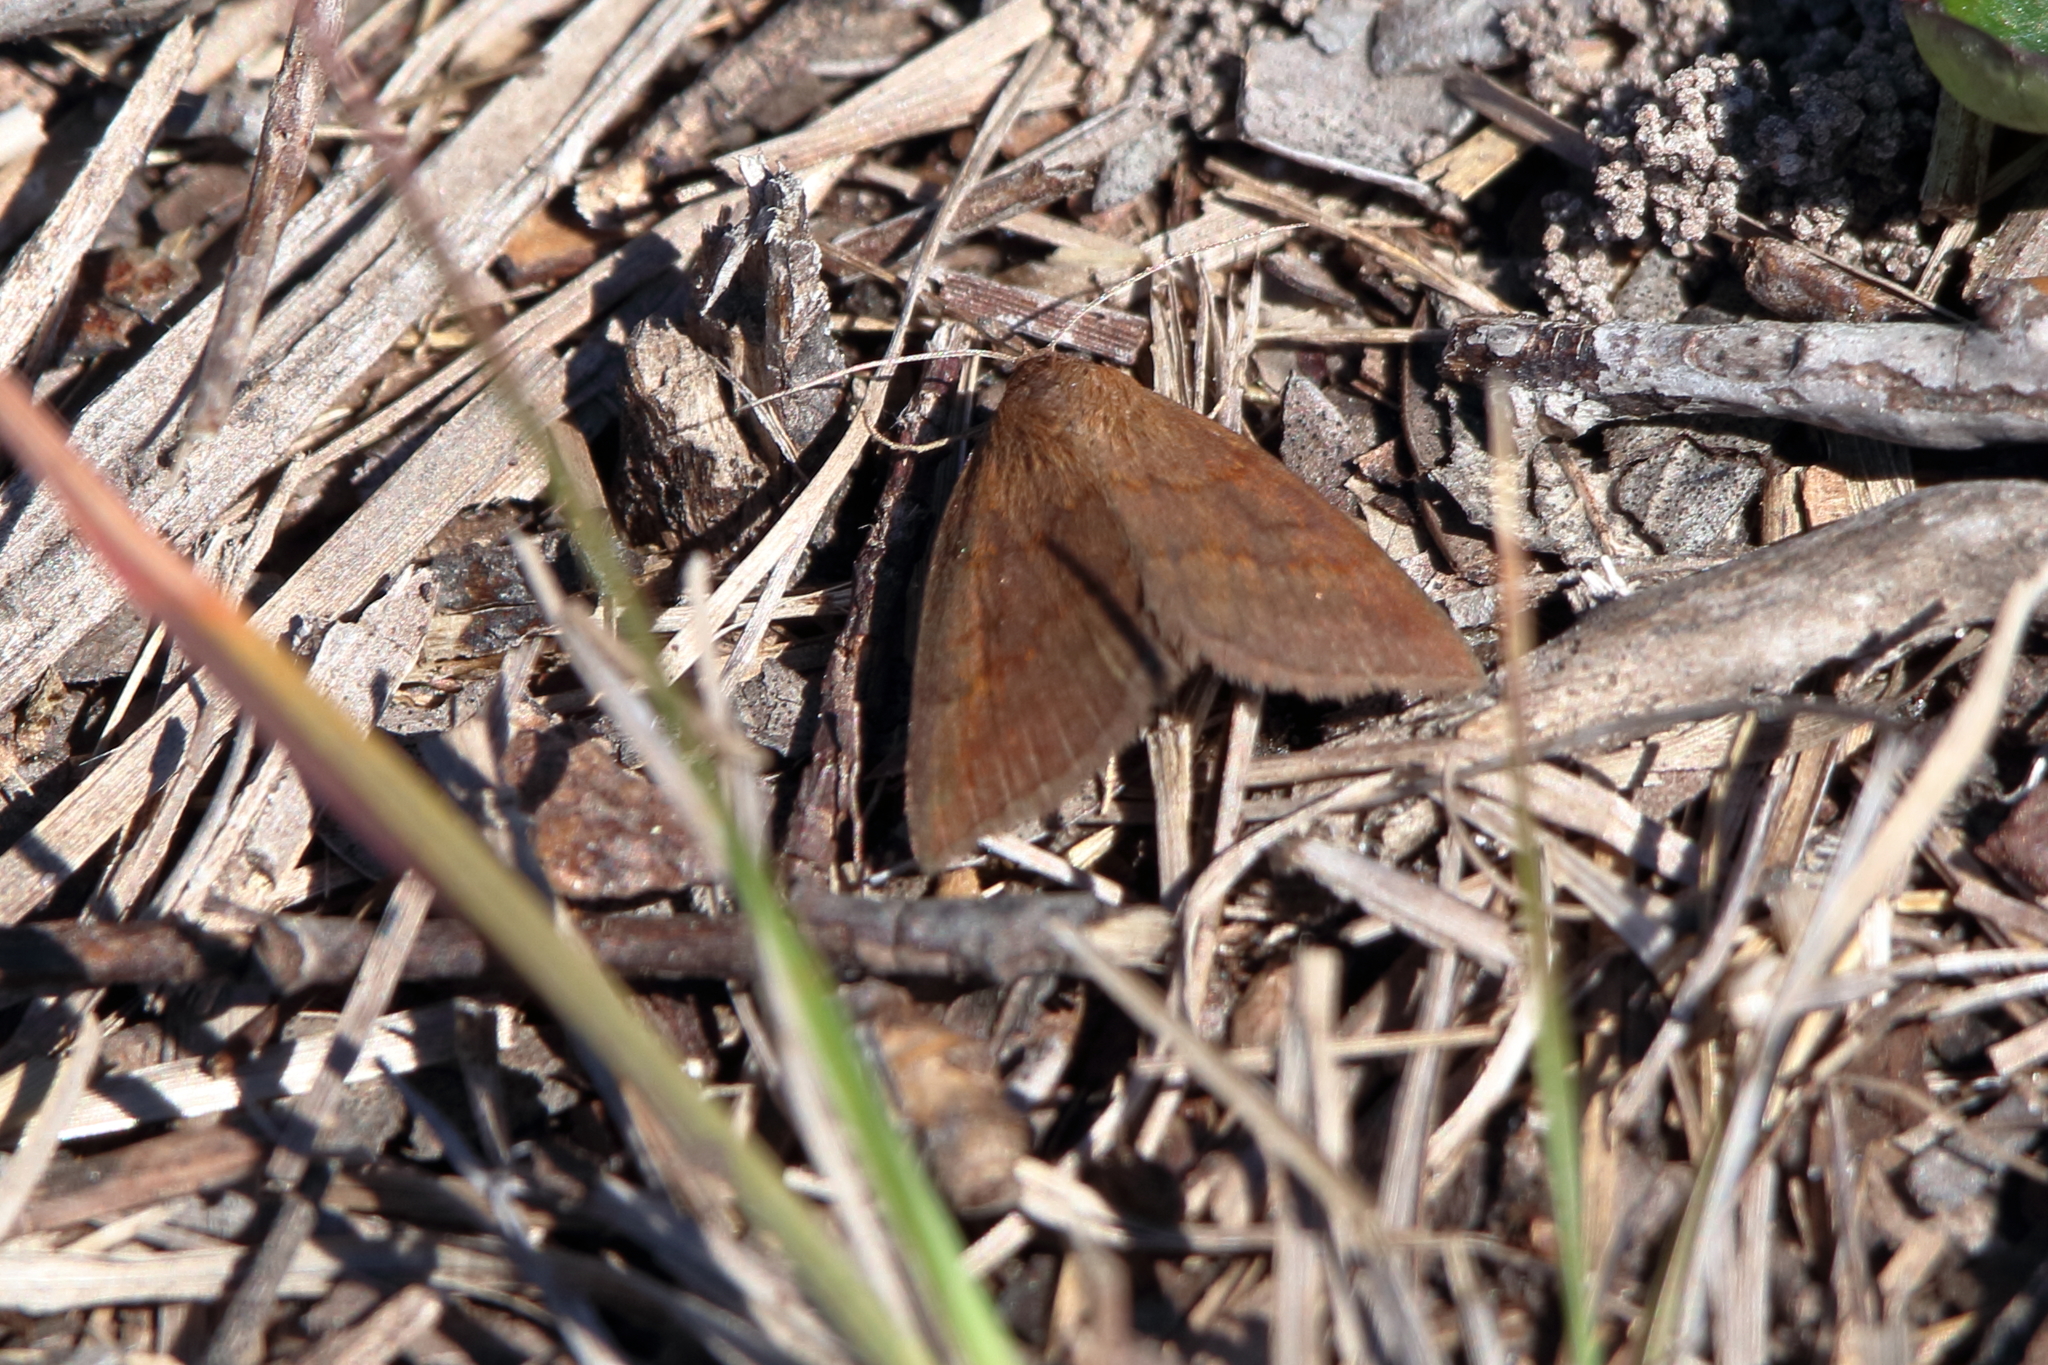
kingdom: Animalia
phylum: Arthropoda
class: Insecta
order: Lepidoptera
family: Erebidae
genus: Argyrostrotis
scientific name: Argyrostrotis deleta
